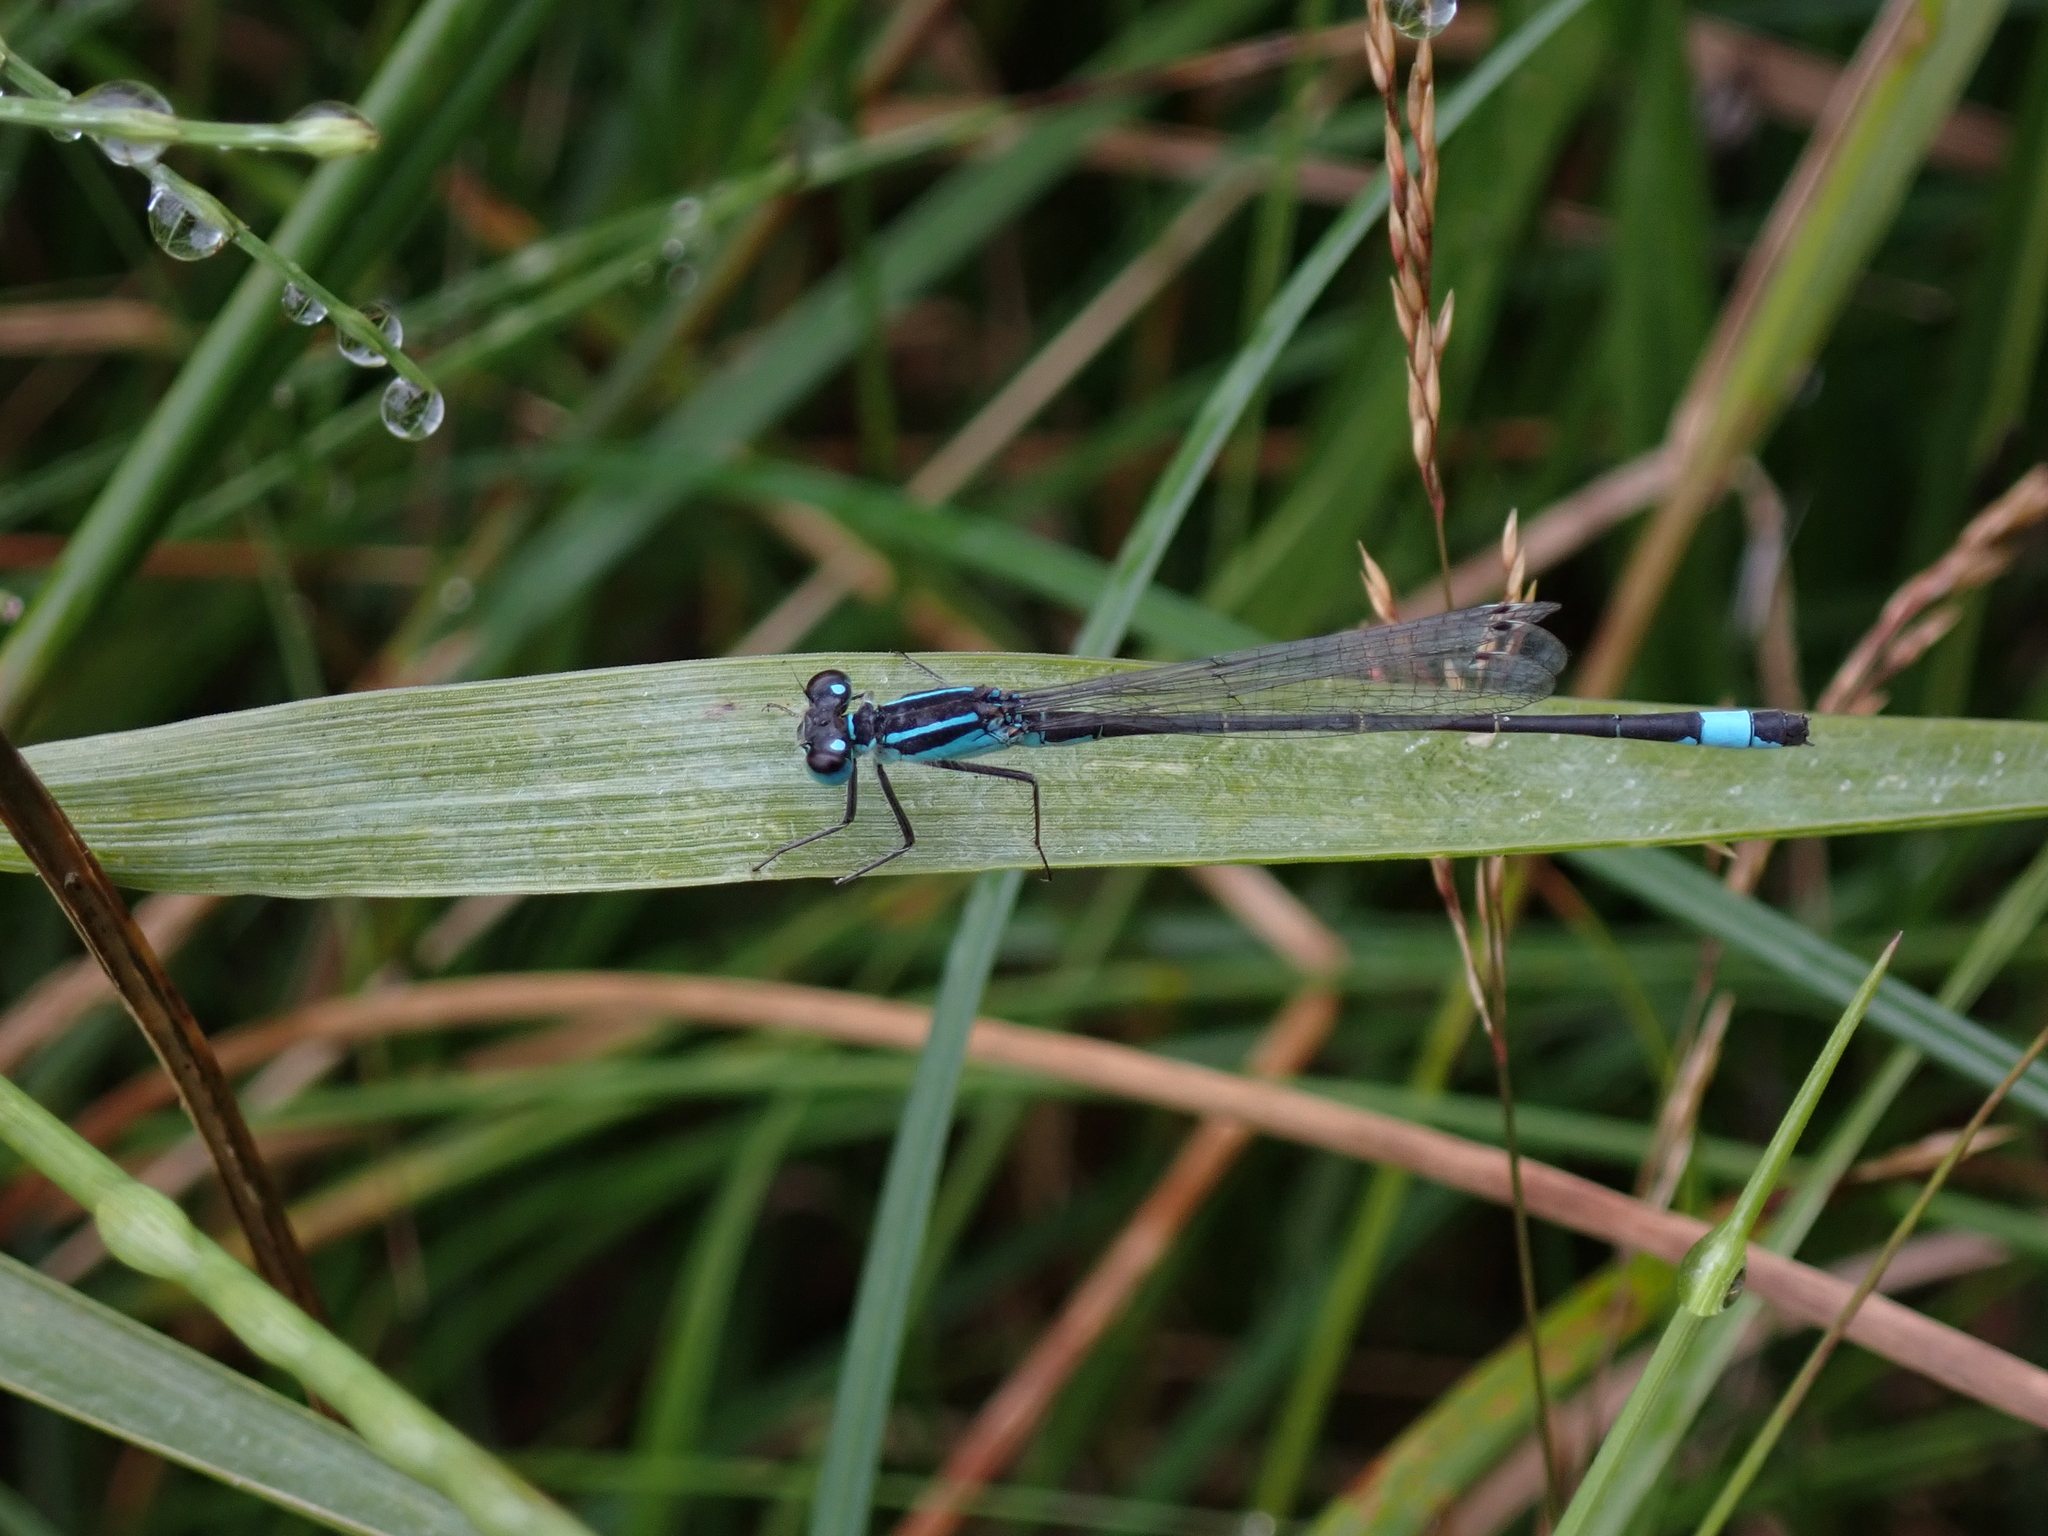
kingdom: Animalia
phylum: Arthropoda
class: Insecta
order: Odonata
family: Coenagrionidae
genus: Ischnura
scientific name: Ischnura elegans
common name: Blue-tailed damselfly
